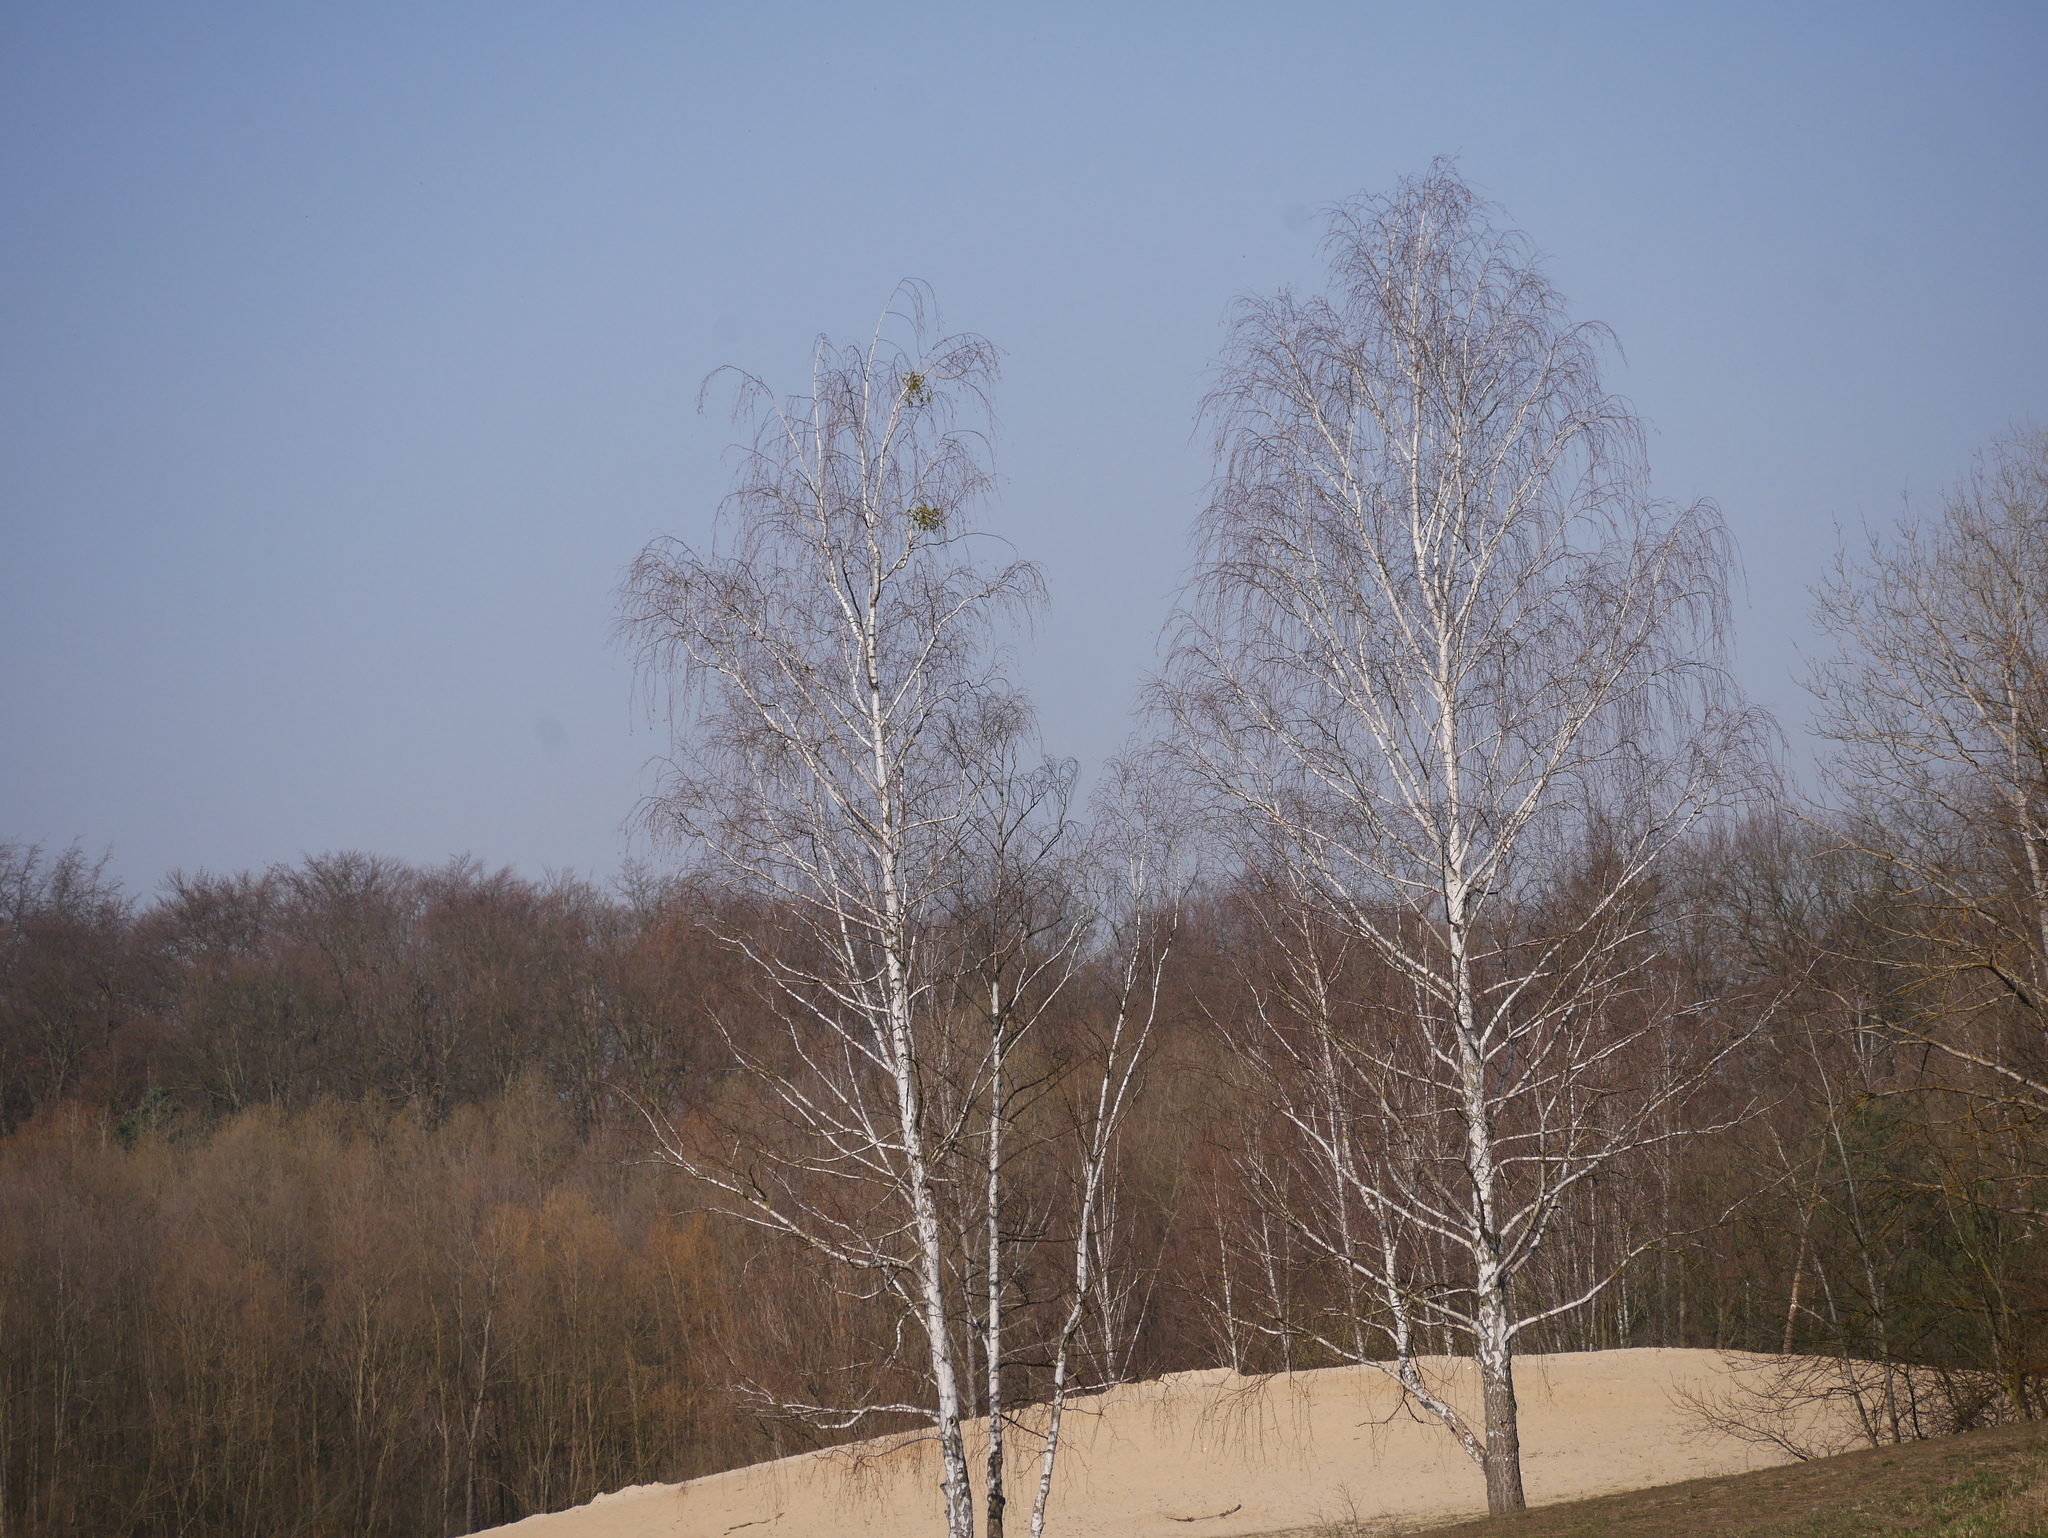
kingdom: Plantae
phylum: Tracheophyta
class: Magnoliopsida
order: Fagales
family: Betulaceae
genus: Betula
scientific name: Betula pendula
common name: Silver birch
